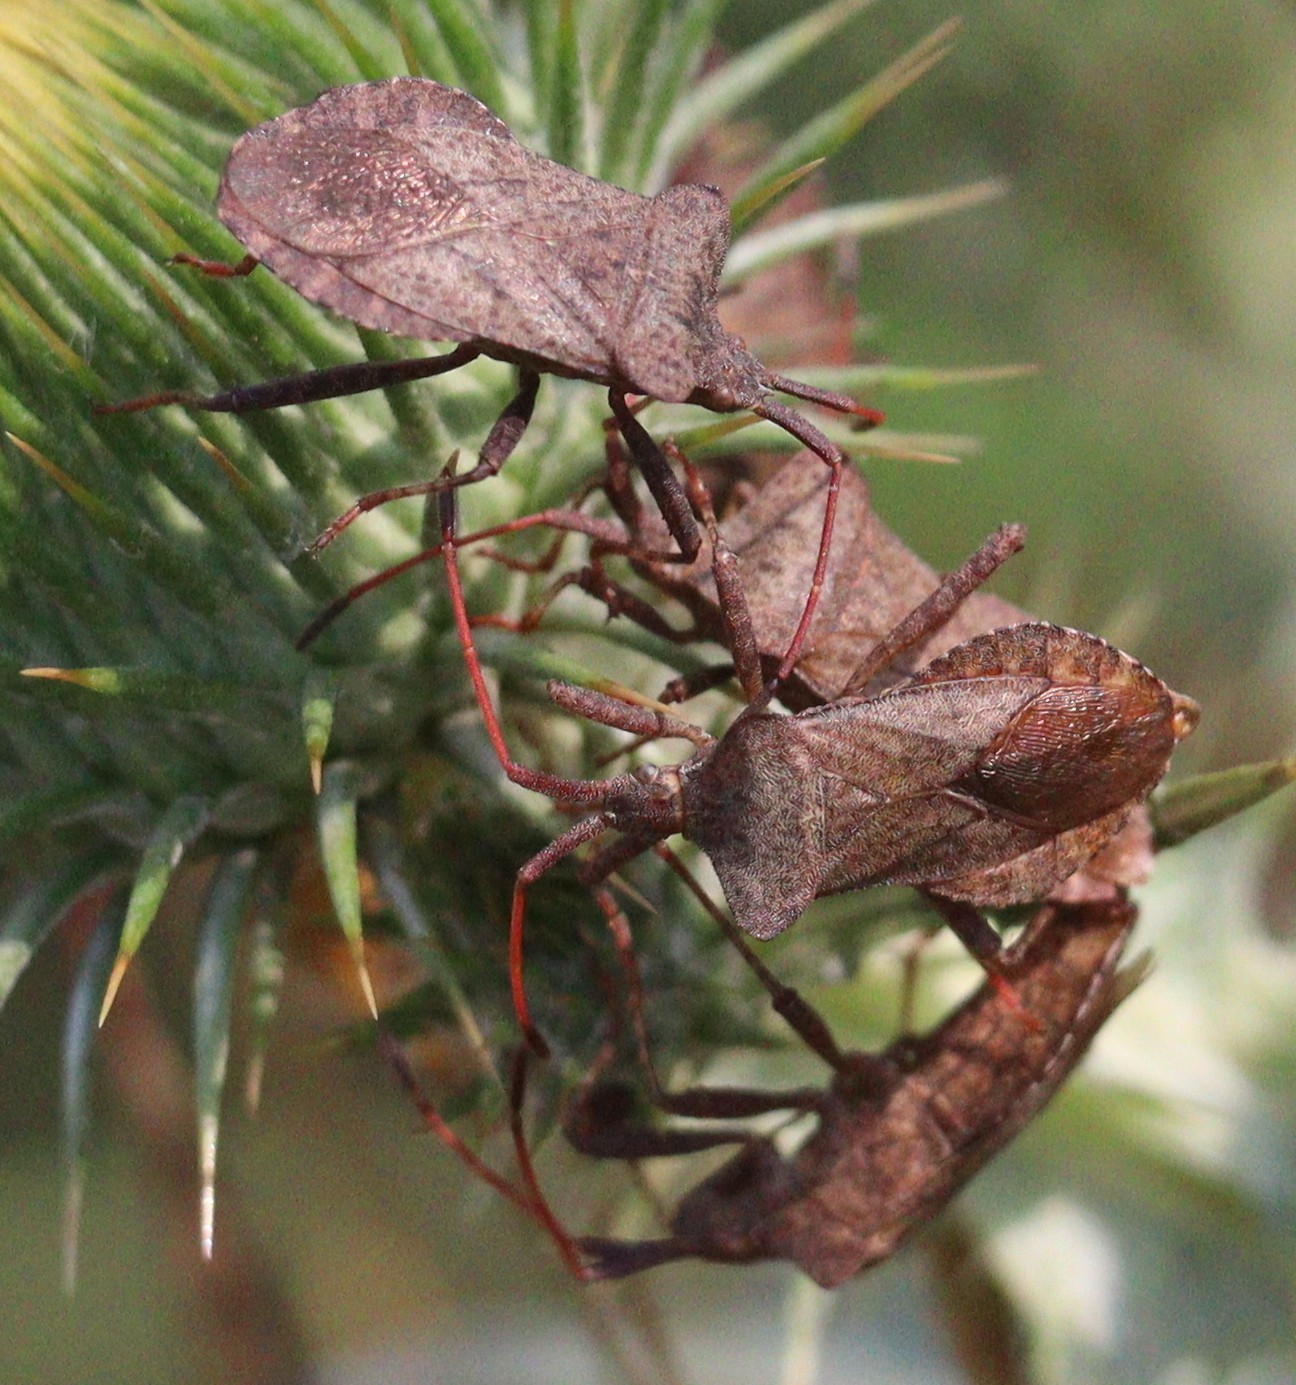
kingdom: Animalia
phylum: Arthropoda
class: Insecta
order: Hemiptera
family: Coreidae
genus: Coreus
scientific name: Coreus marginatus
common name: Dock bug
